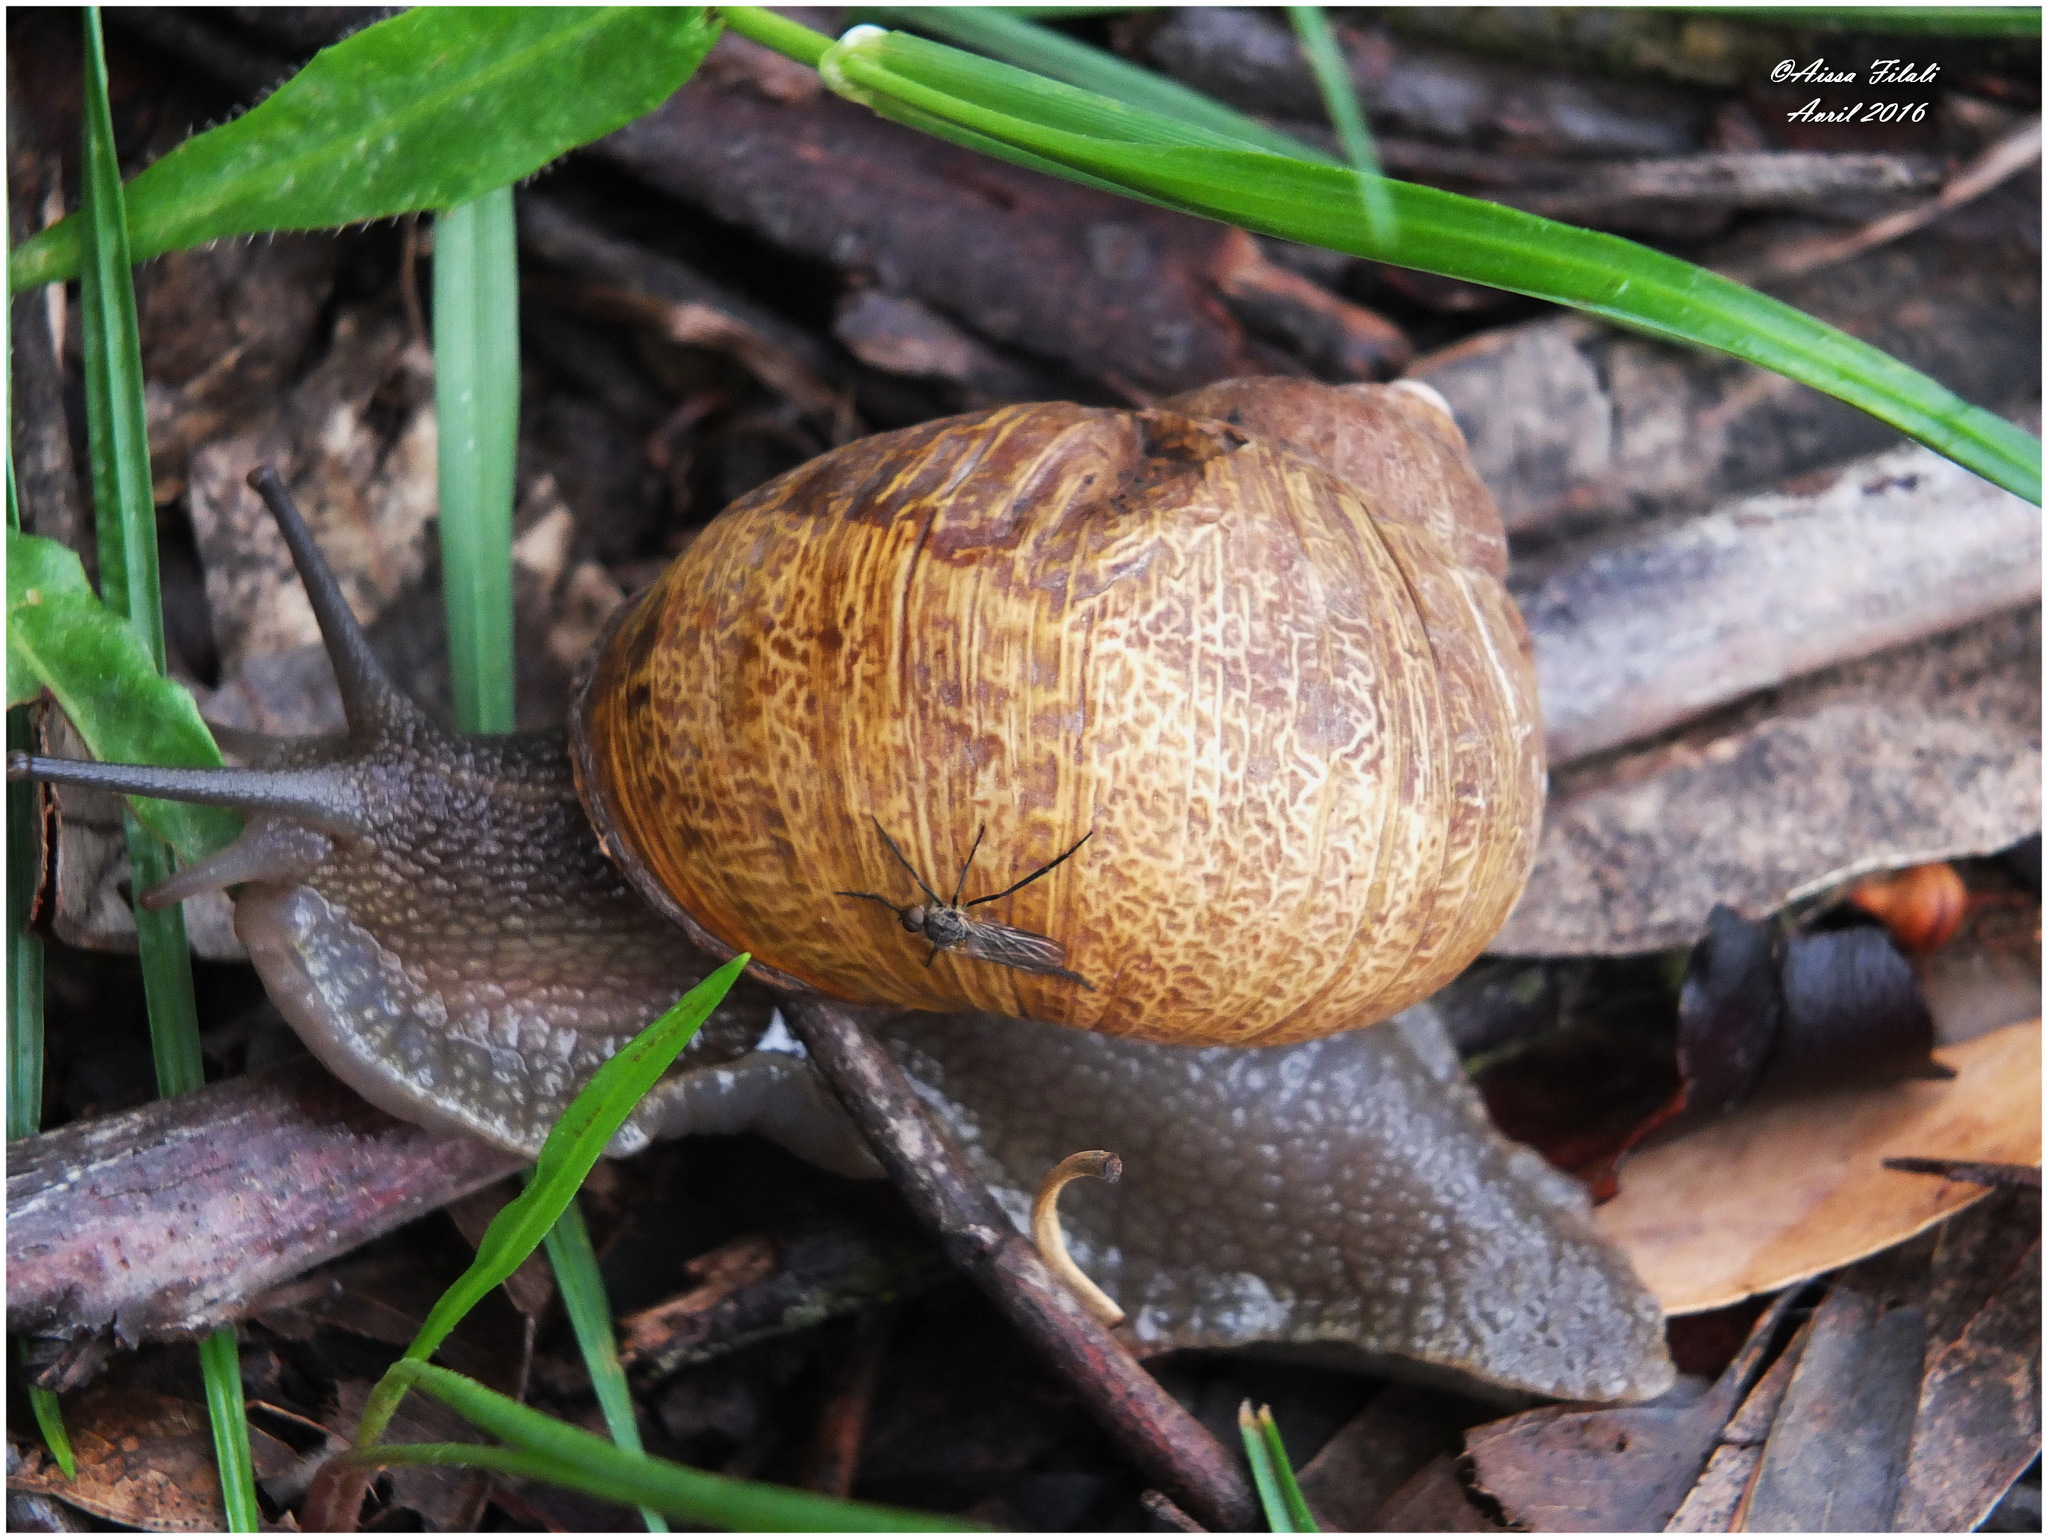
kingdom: Animalia
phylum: Mollusca
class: Gastropoda
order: Stylommatophora
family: Helicidae
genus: Cornu
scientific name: Cornu aspersum
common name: Brown garden snail
